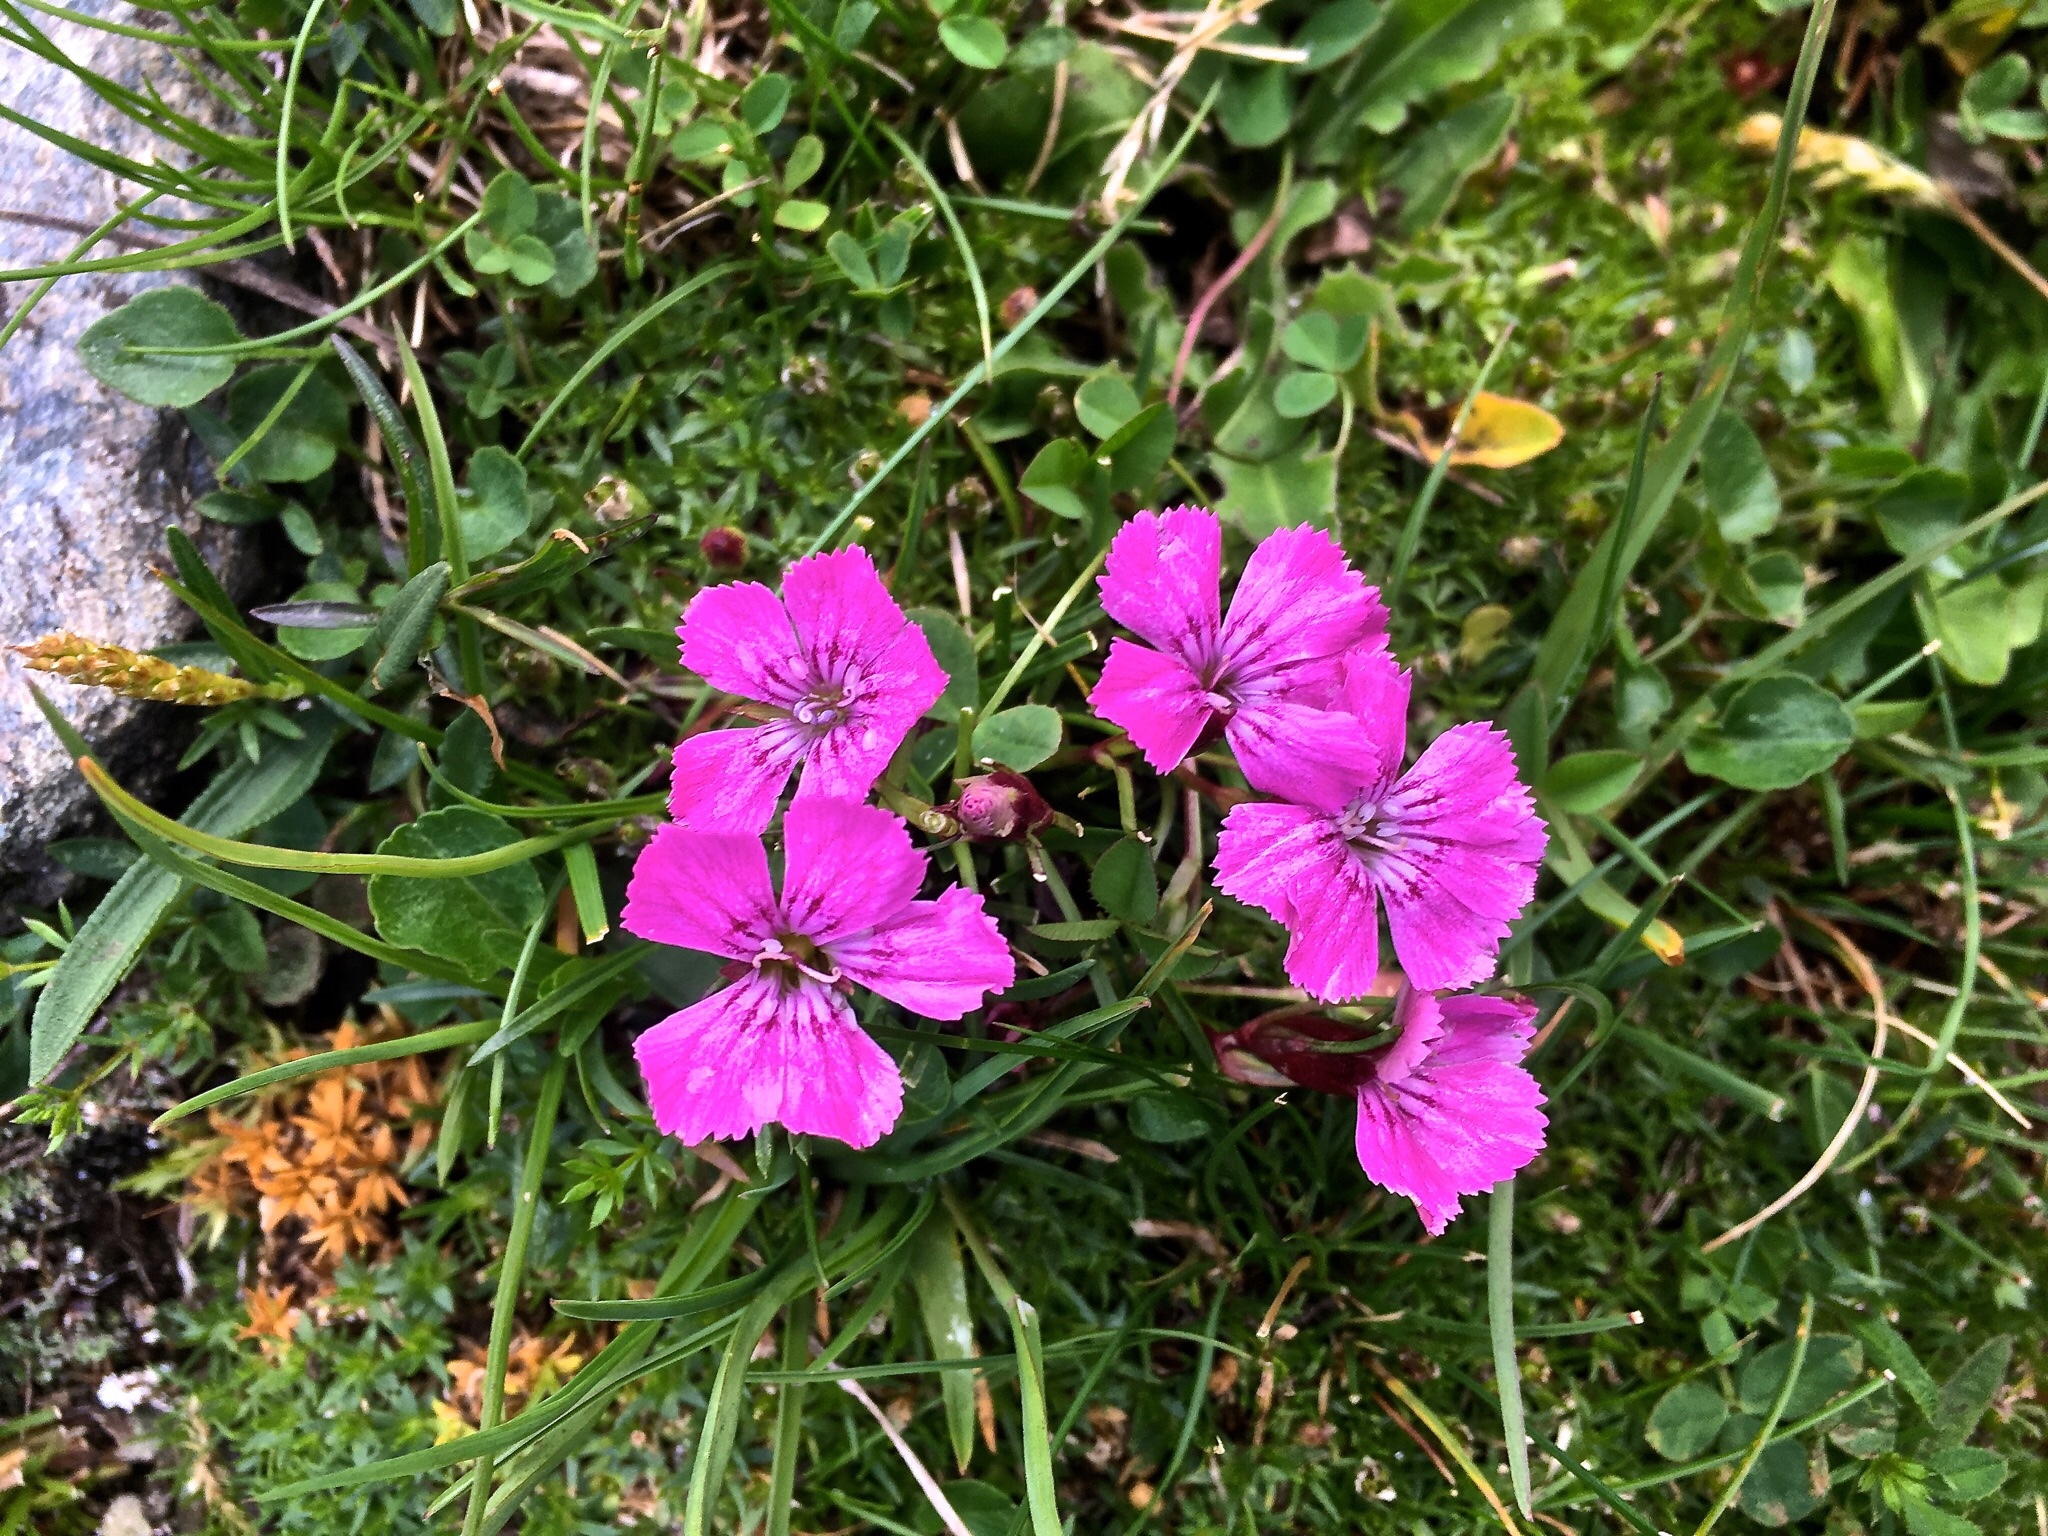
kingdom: Plantae
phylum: Tracheophyta
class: Magnoliopsida
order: Caryophyllales
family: Caryophyllaceae
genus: Dianthus
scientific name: Dianthus glacialis
